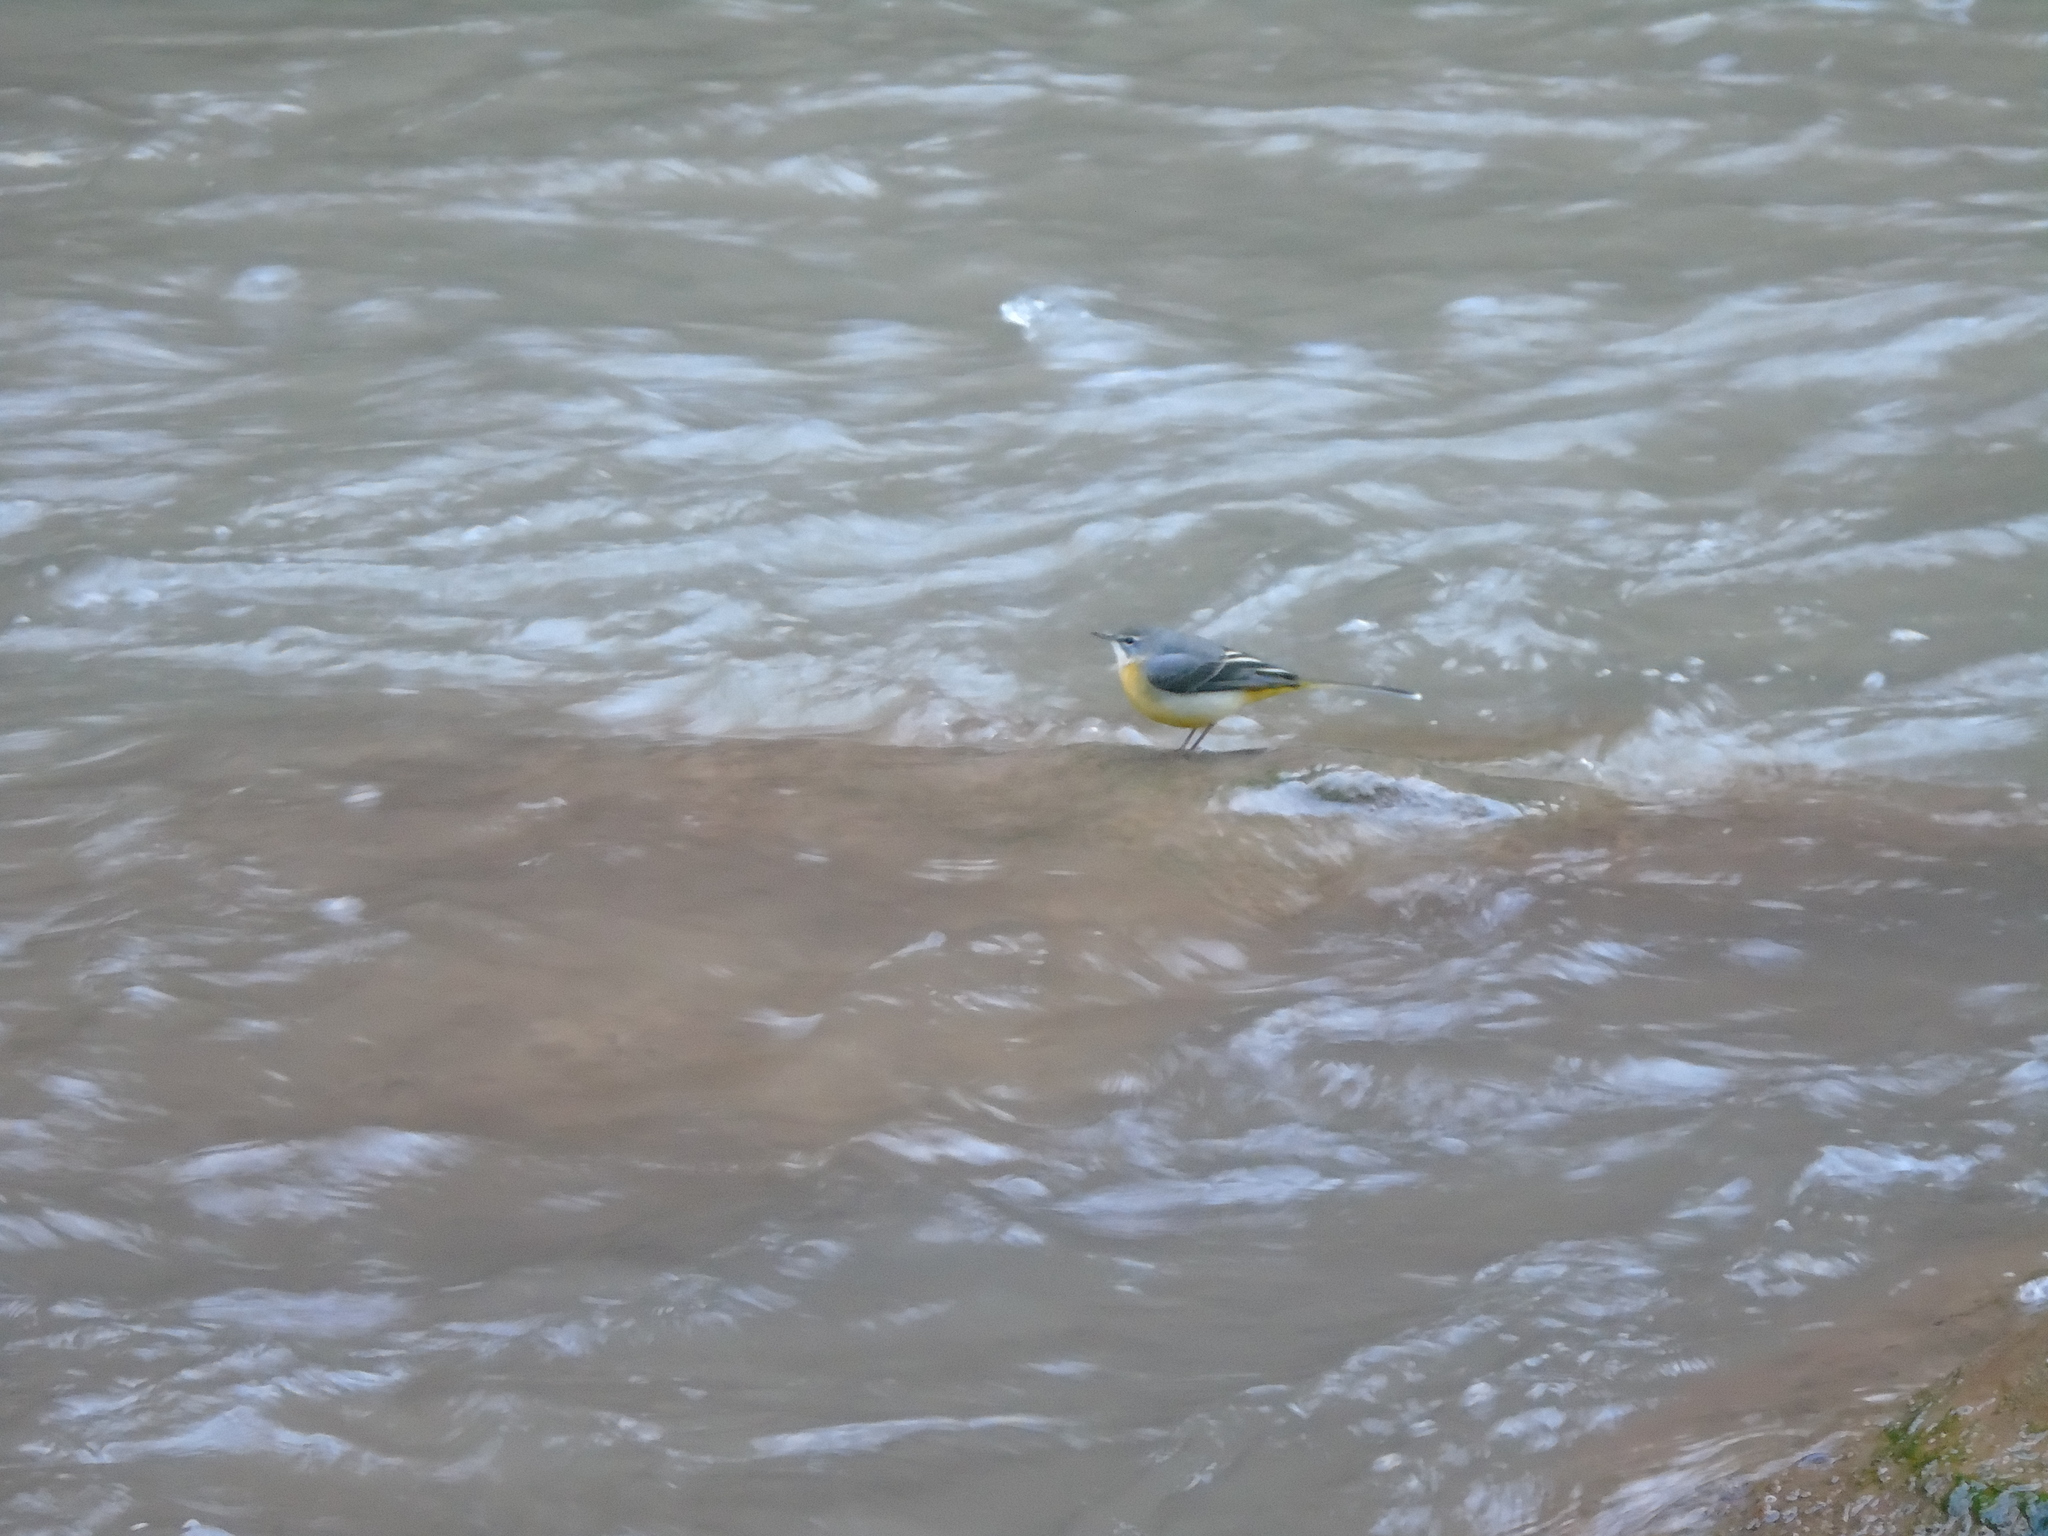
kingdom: Animalia
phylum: Chordata
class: Aves
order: Passeriformes
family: Motacillidae
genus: Motacilla
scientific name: Motacilla cinerea
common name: Grey wagtail
